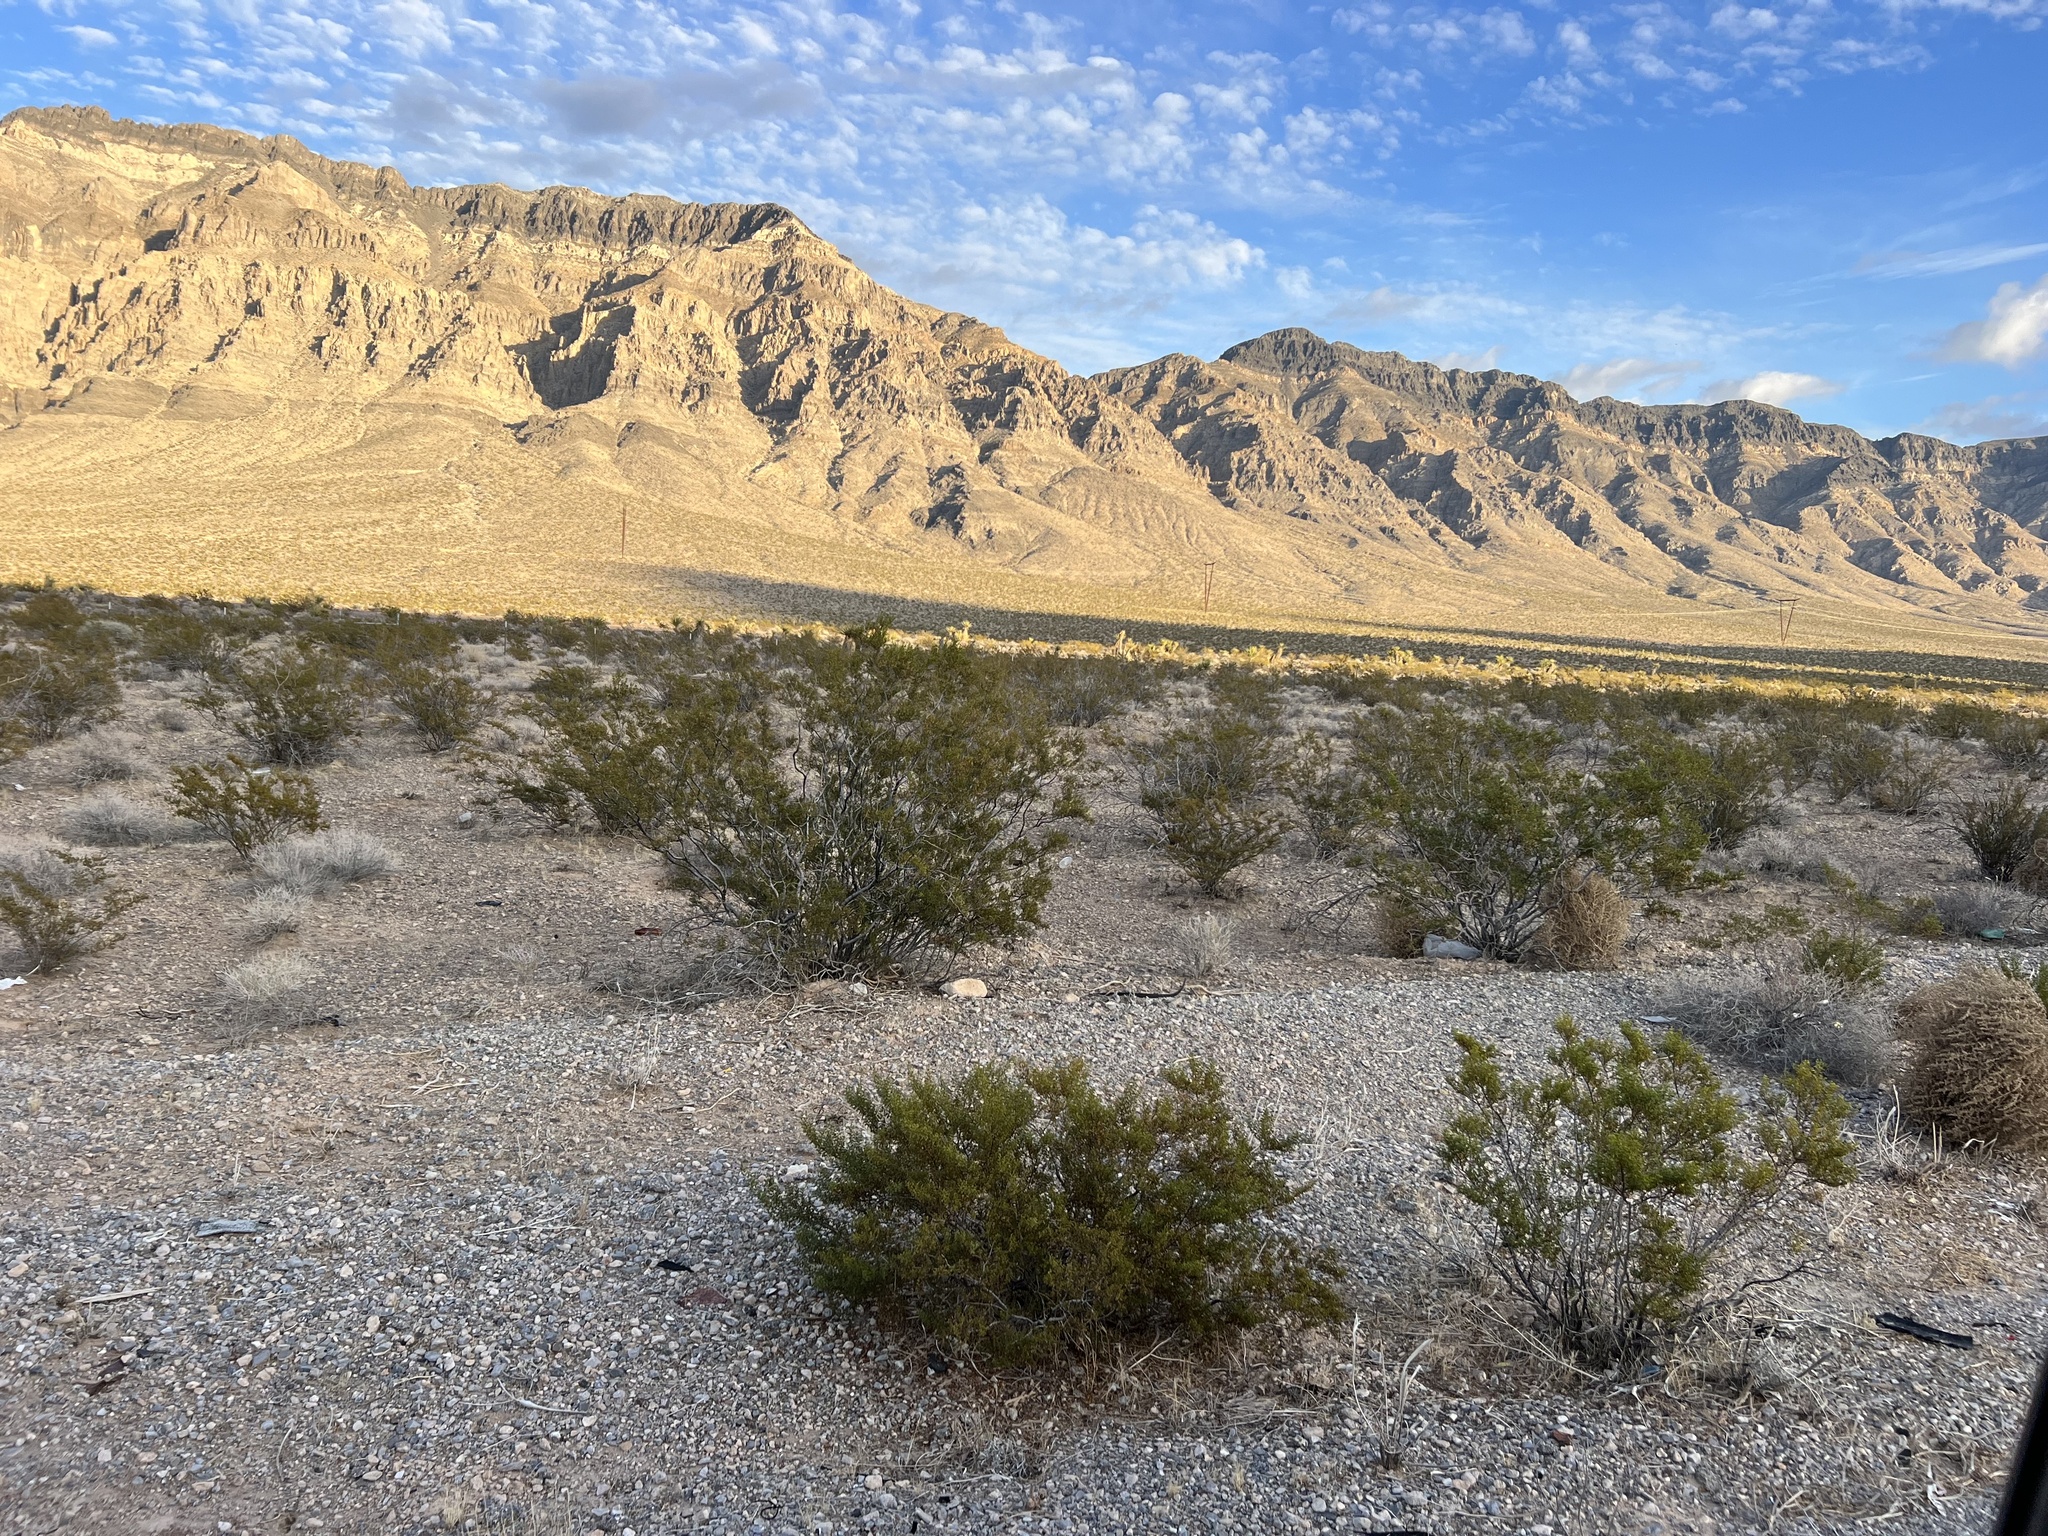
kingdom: Plantae
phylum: Tracheophyta
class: Magnoliopsida
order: Zygophyllales
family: Zygophyllaceae
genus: Larrea
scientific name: Larrea tridentata
